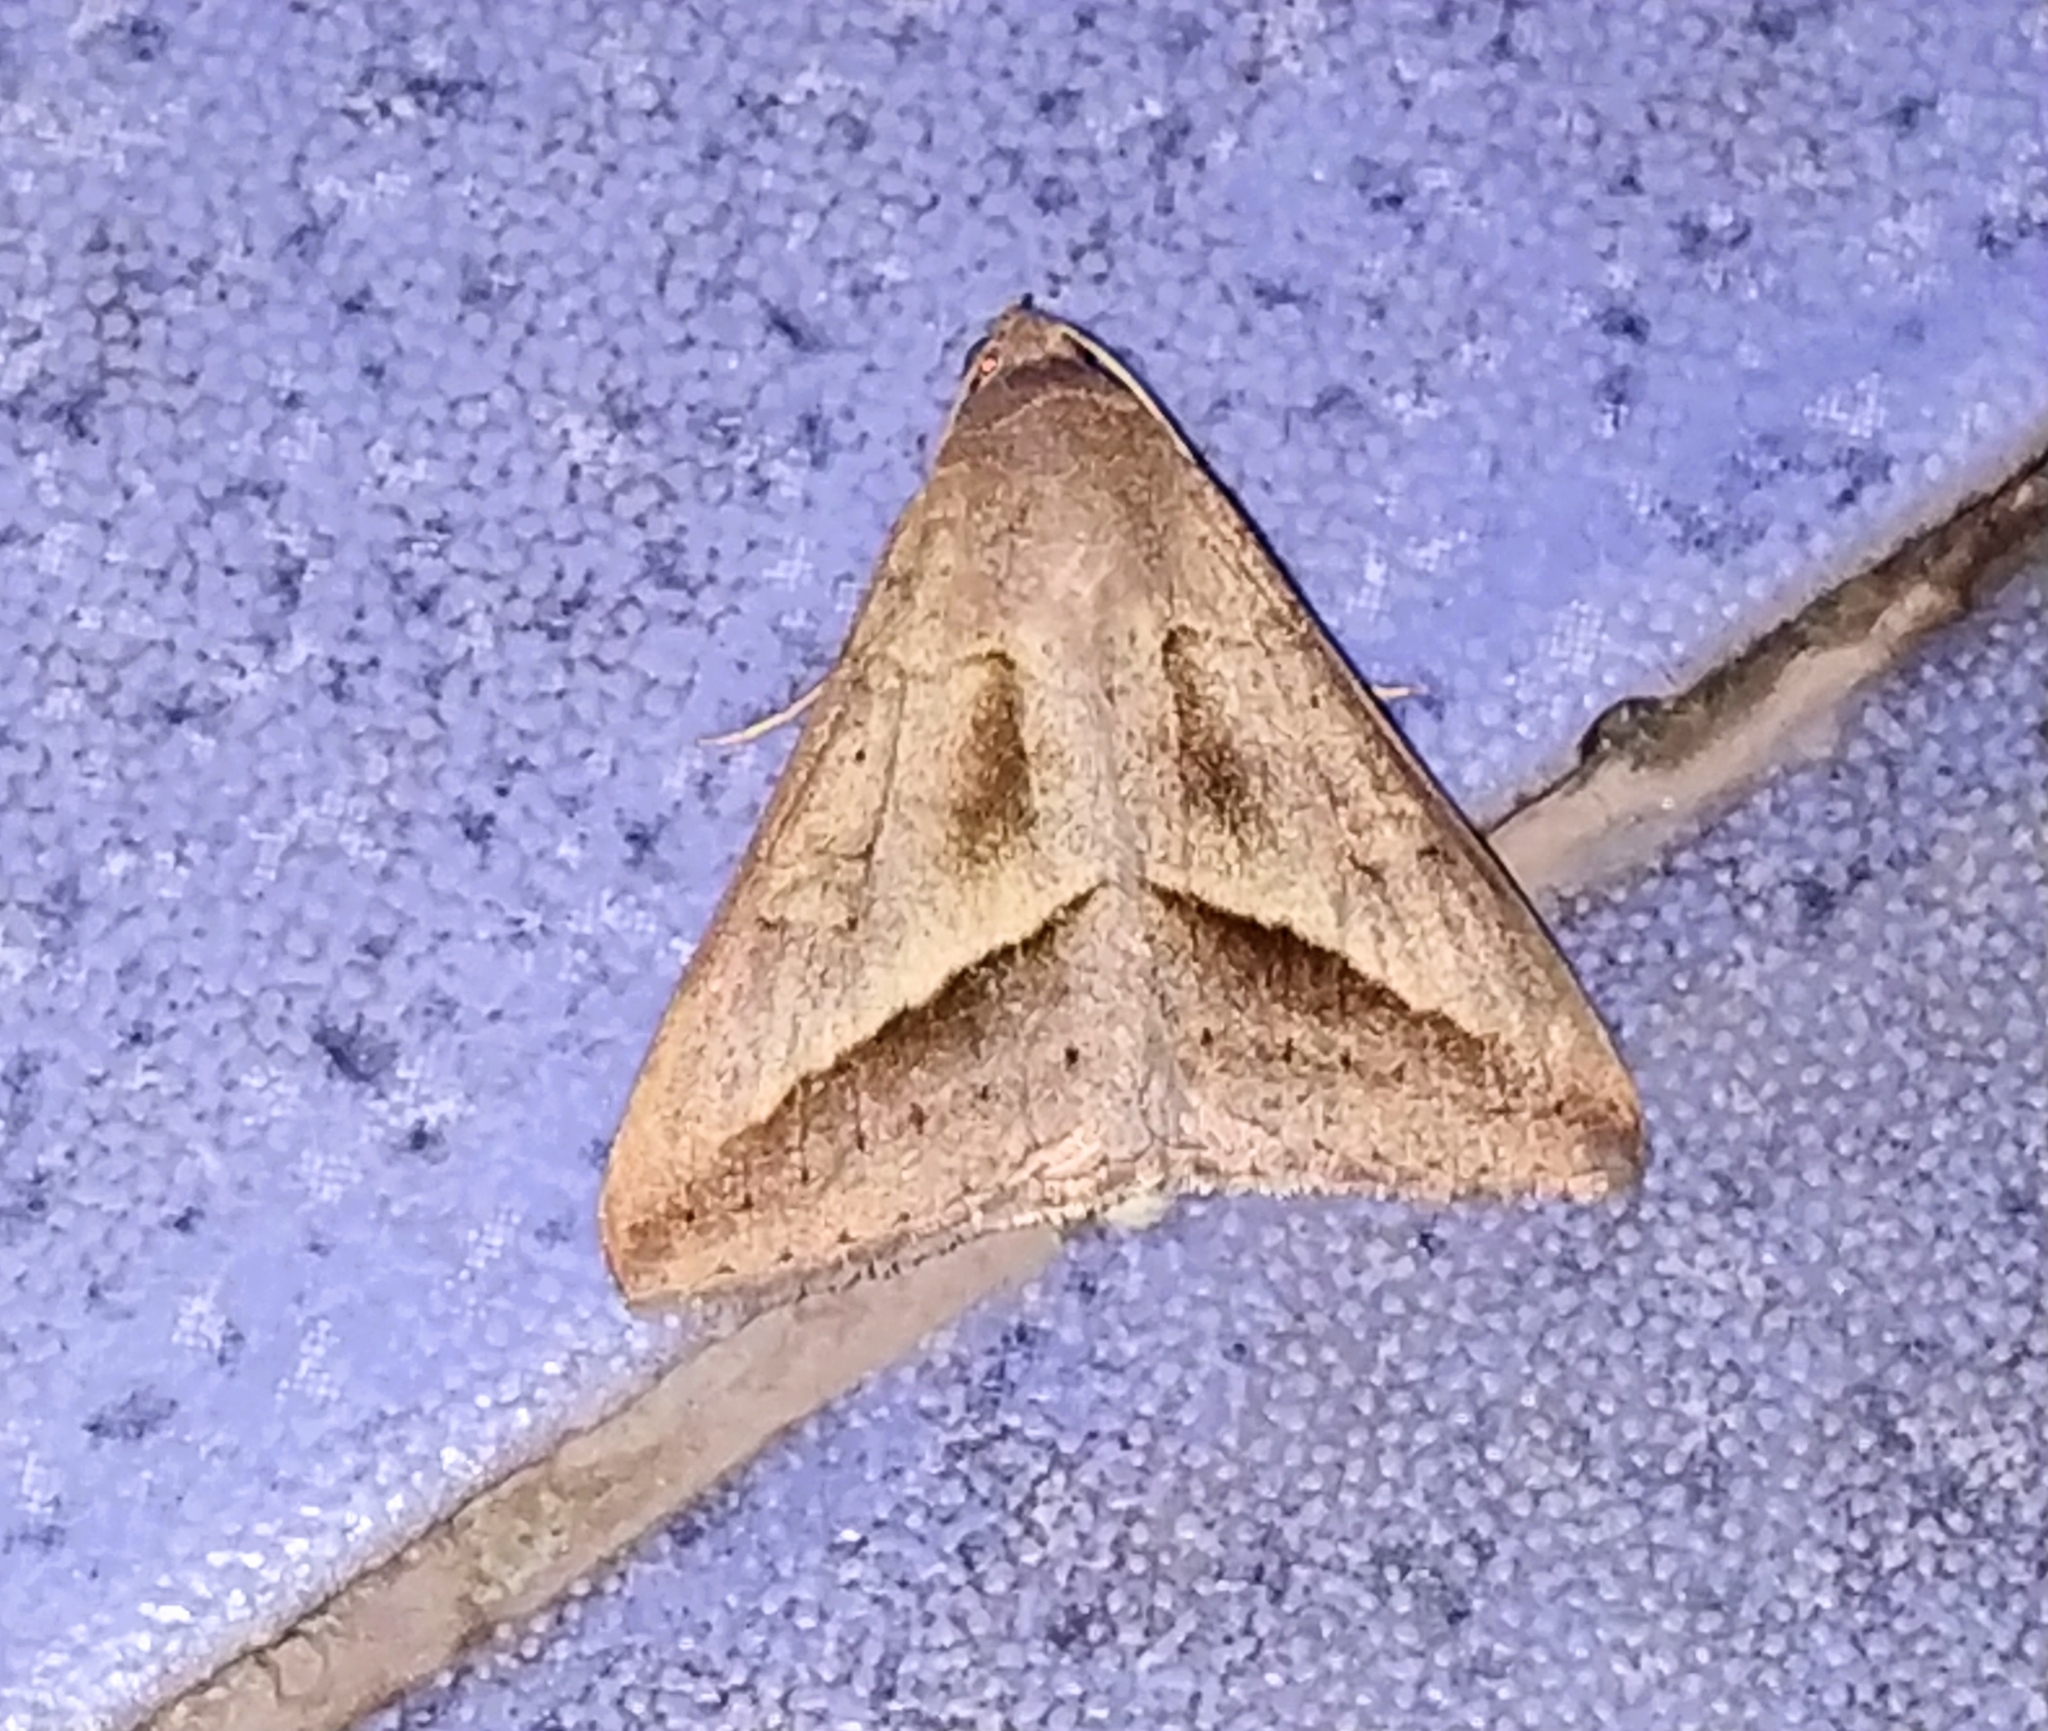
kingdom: Animalia
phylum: Arthropoda
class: Insecta
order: Lepidoptera
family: Erebidae
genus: Mocis
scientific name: Mocis frugalis
